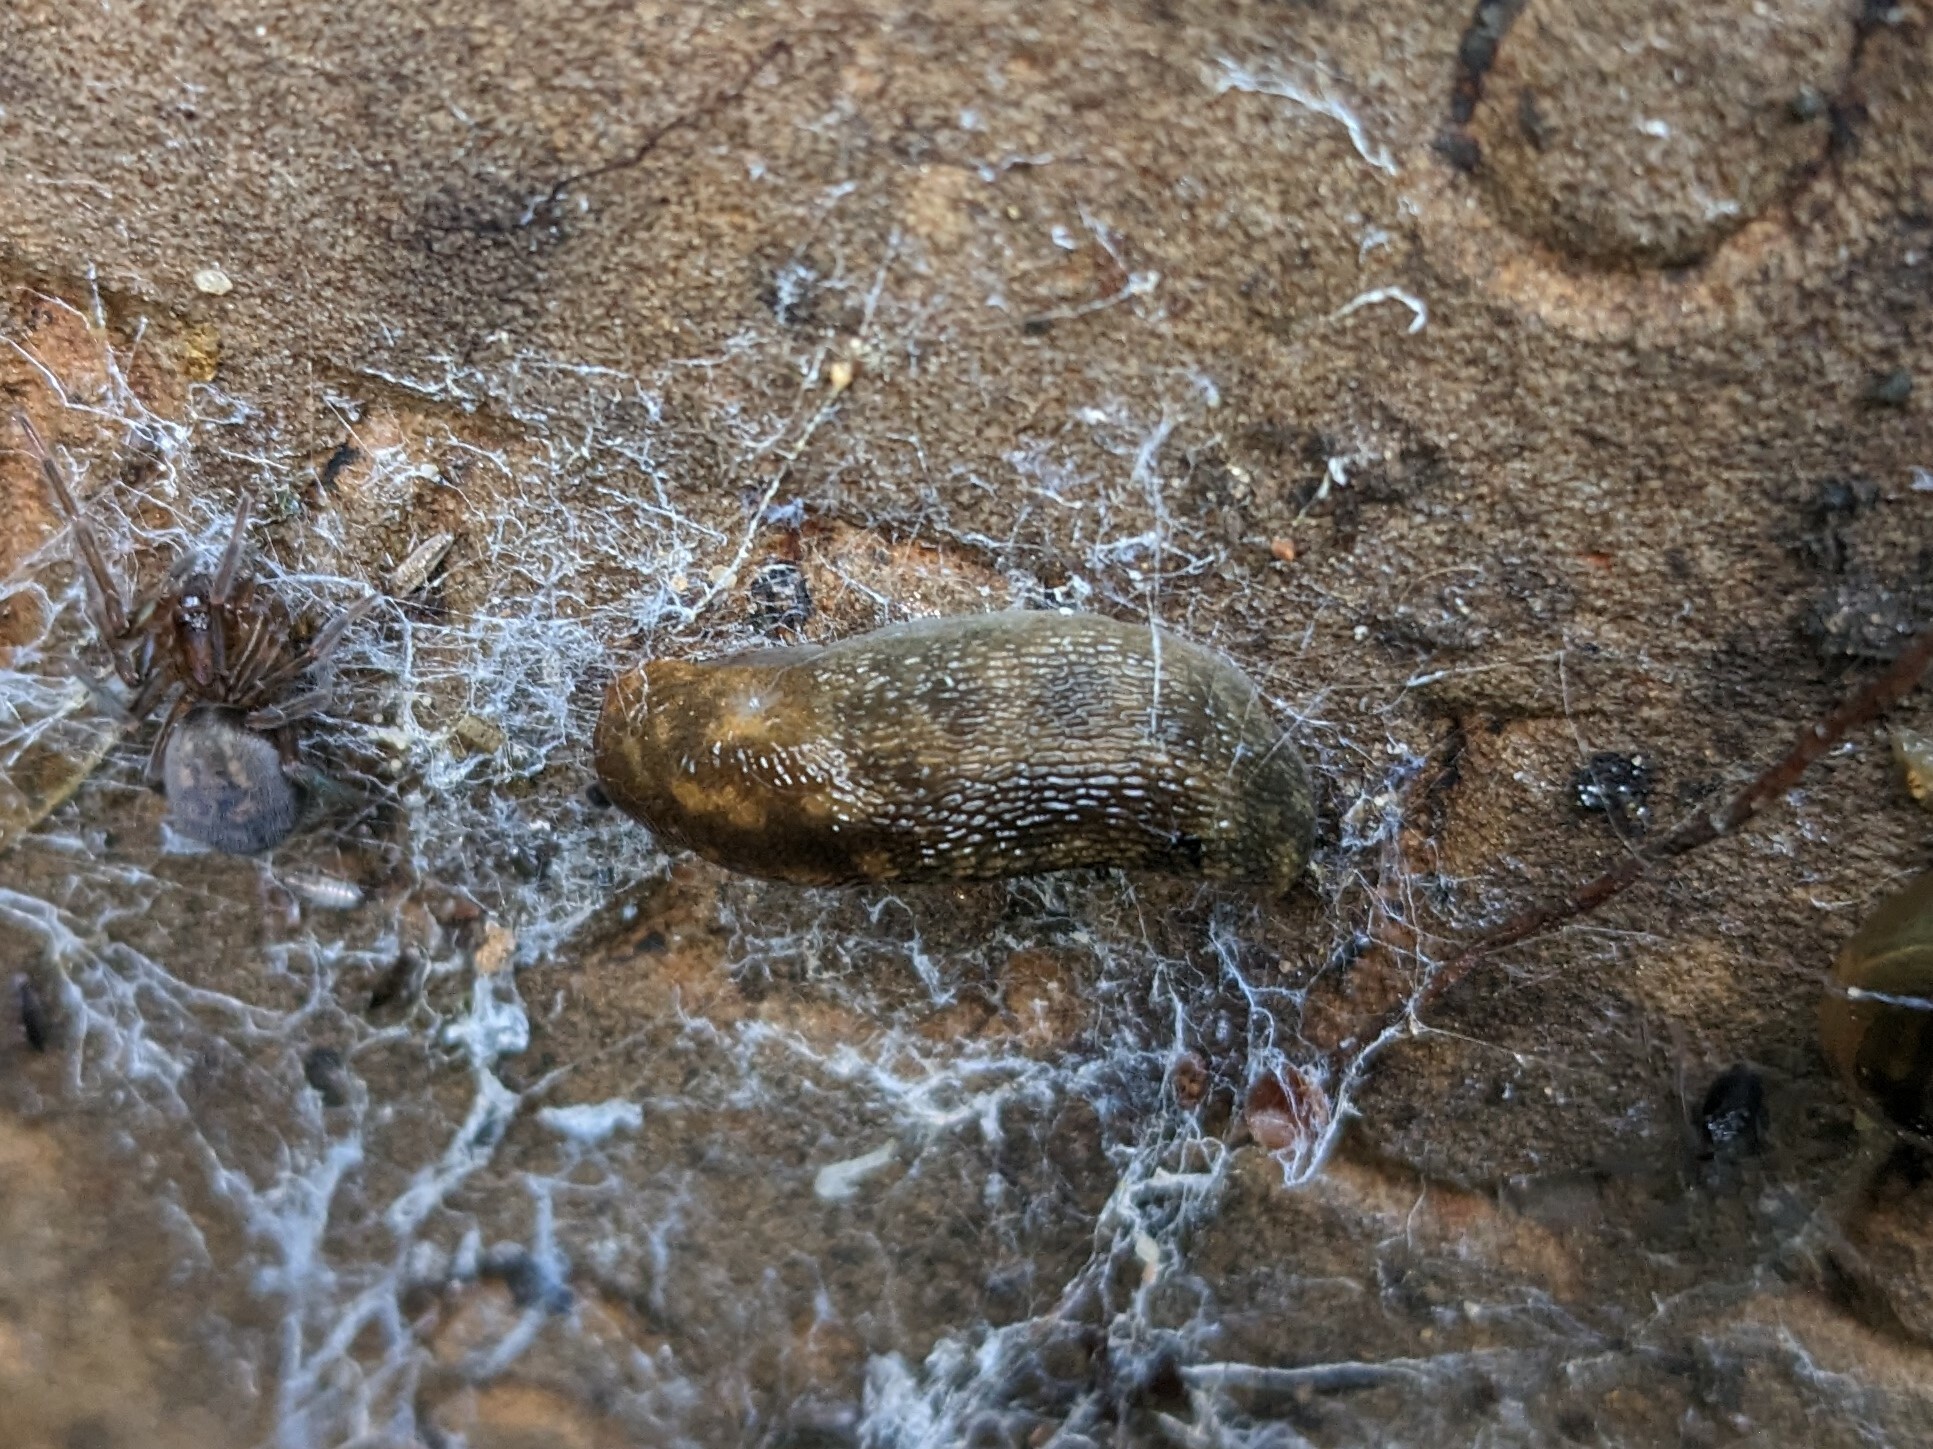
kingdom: Animalia
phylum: Mollusca
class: Gastropoda
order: Stylommatophora
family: Limacidae
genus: Limacus
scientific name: Limacus maculatus
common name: Irish yellow slug
